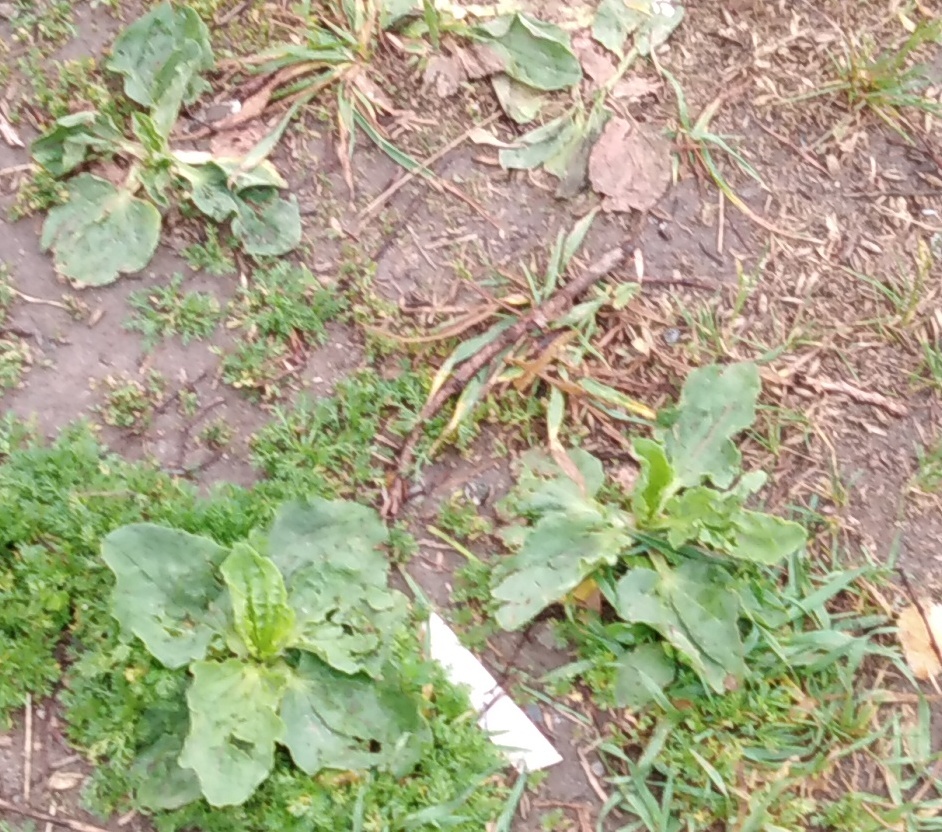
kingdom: Plantae
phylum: Tracheophyta
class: Magnoliopsida
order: Lamiales
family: Plantaginaceae
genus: Plantago
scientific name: Plantago major
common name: Common plantain
